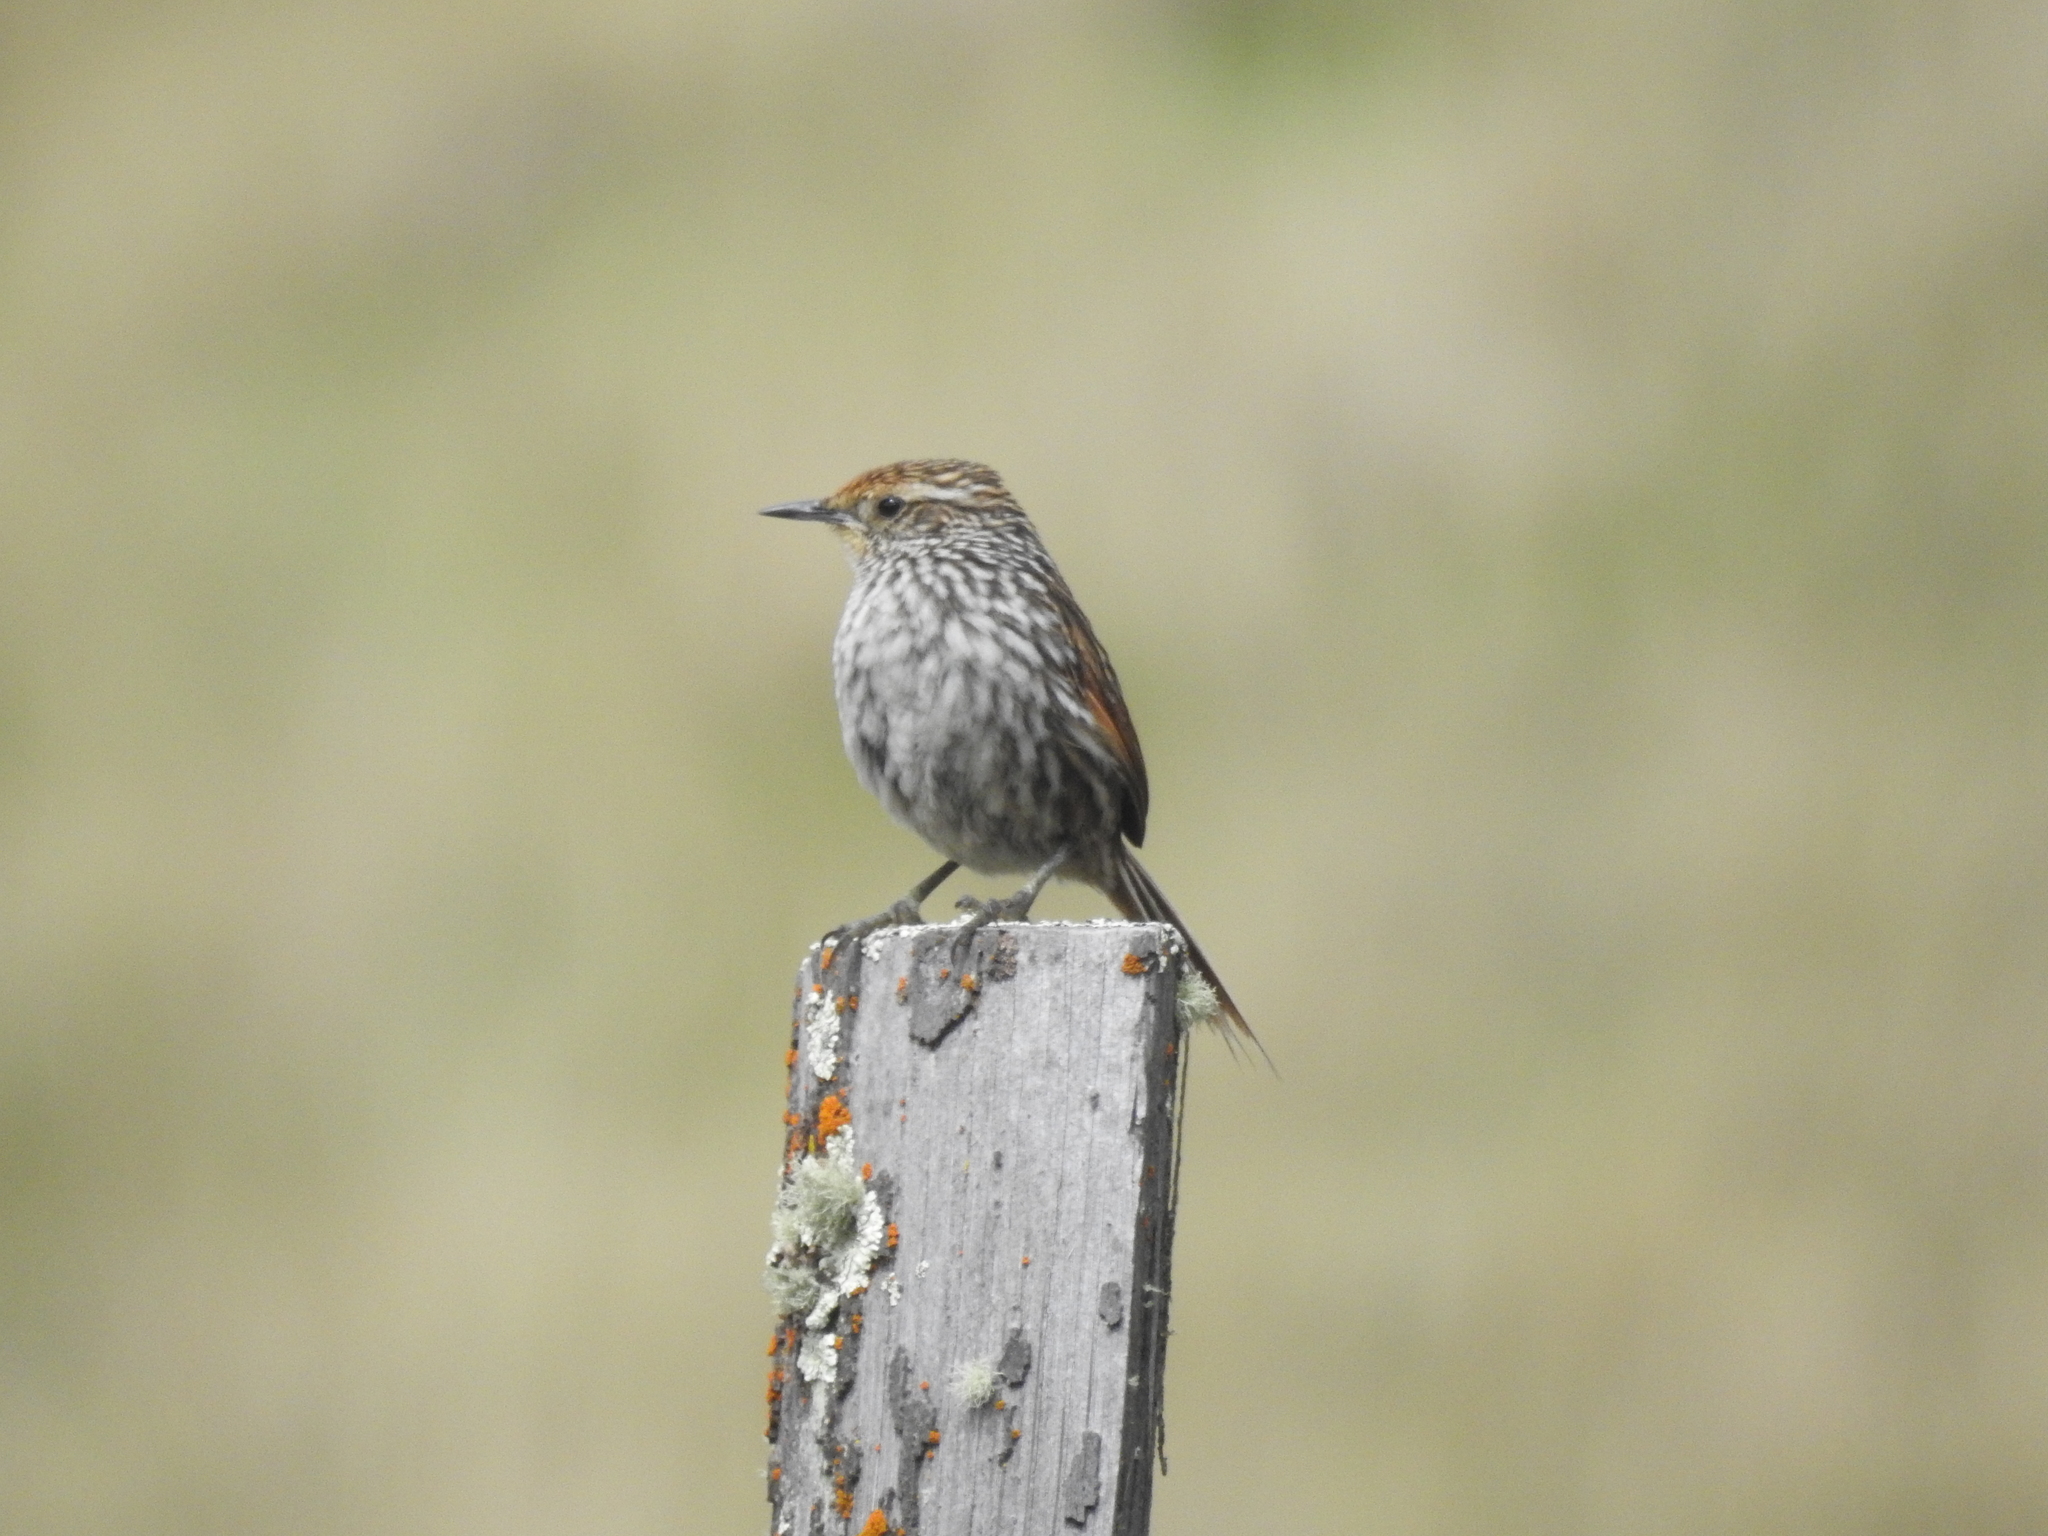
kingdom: Animalia
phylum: Chordata
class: Aves
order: Passeriformes
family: Furnariidae
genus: Asthenes
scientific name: Asthenes flammulata
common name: Many-striped canastero
